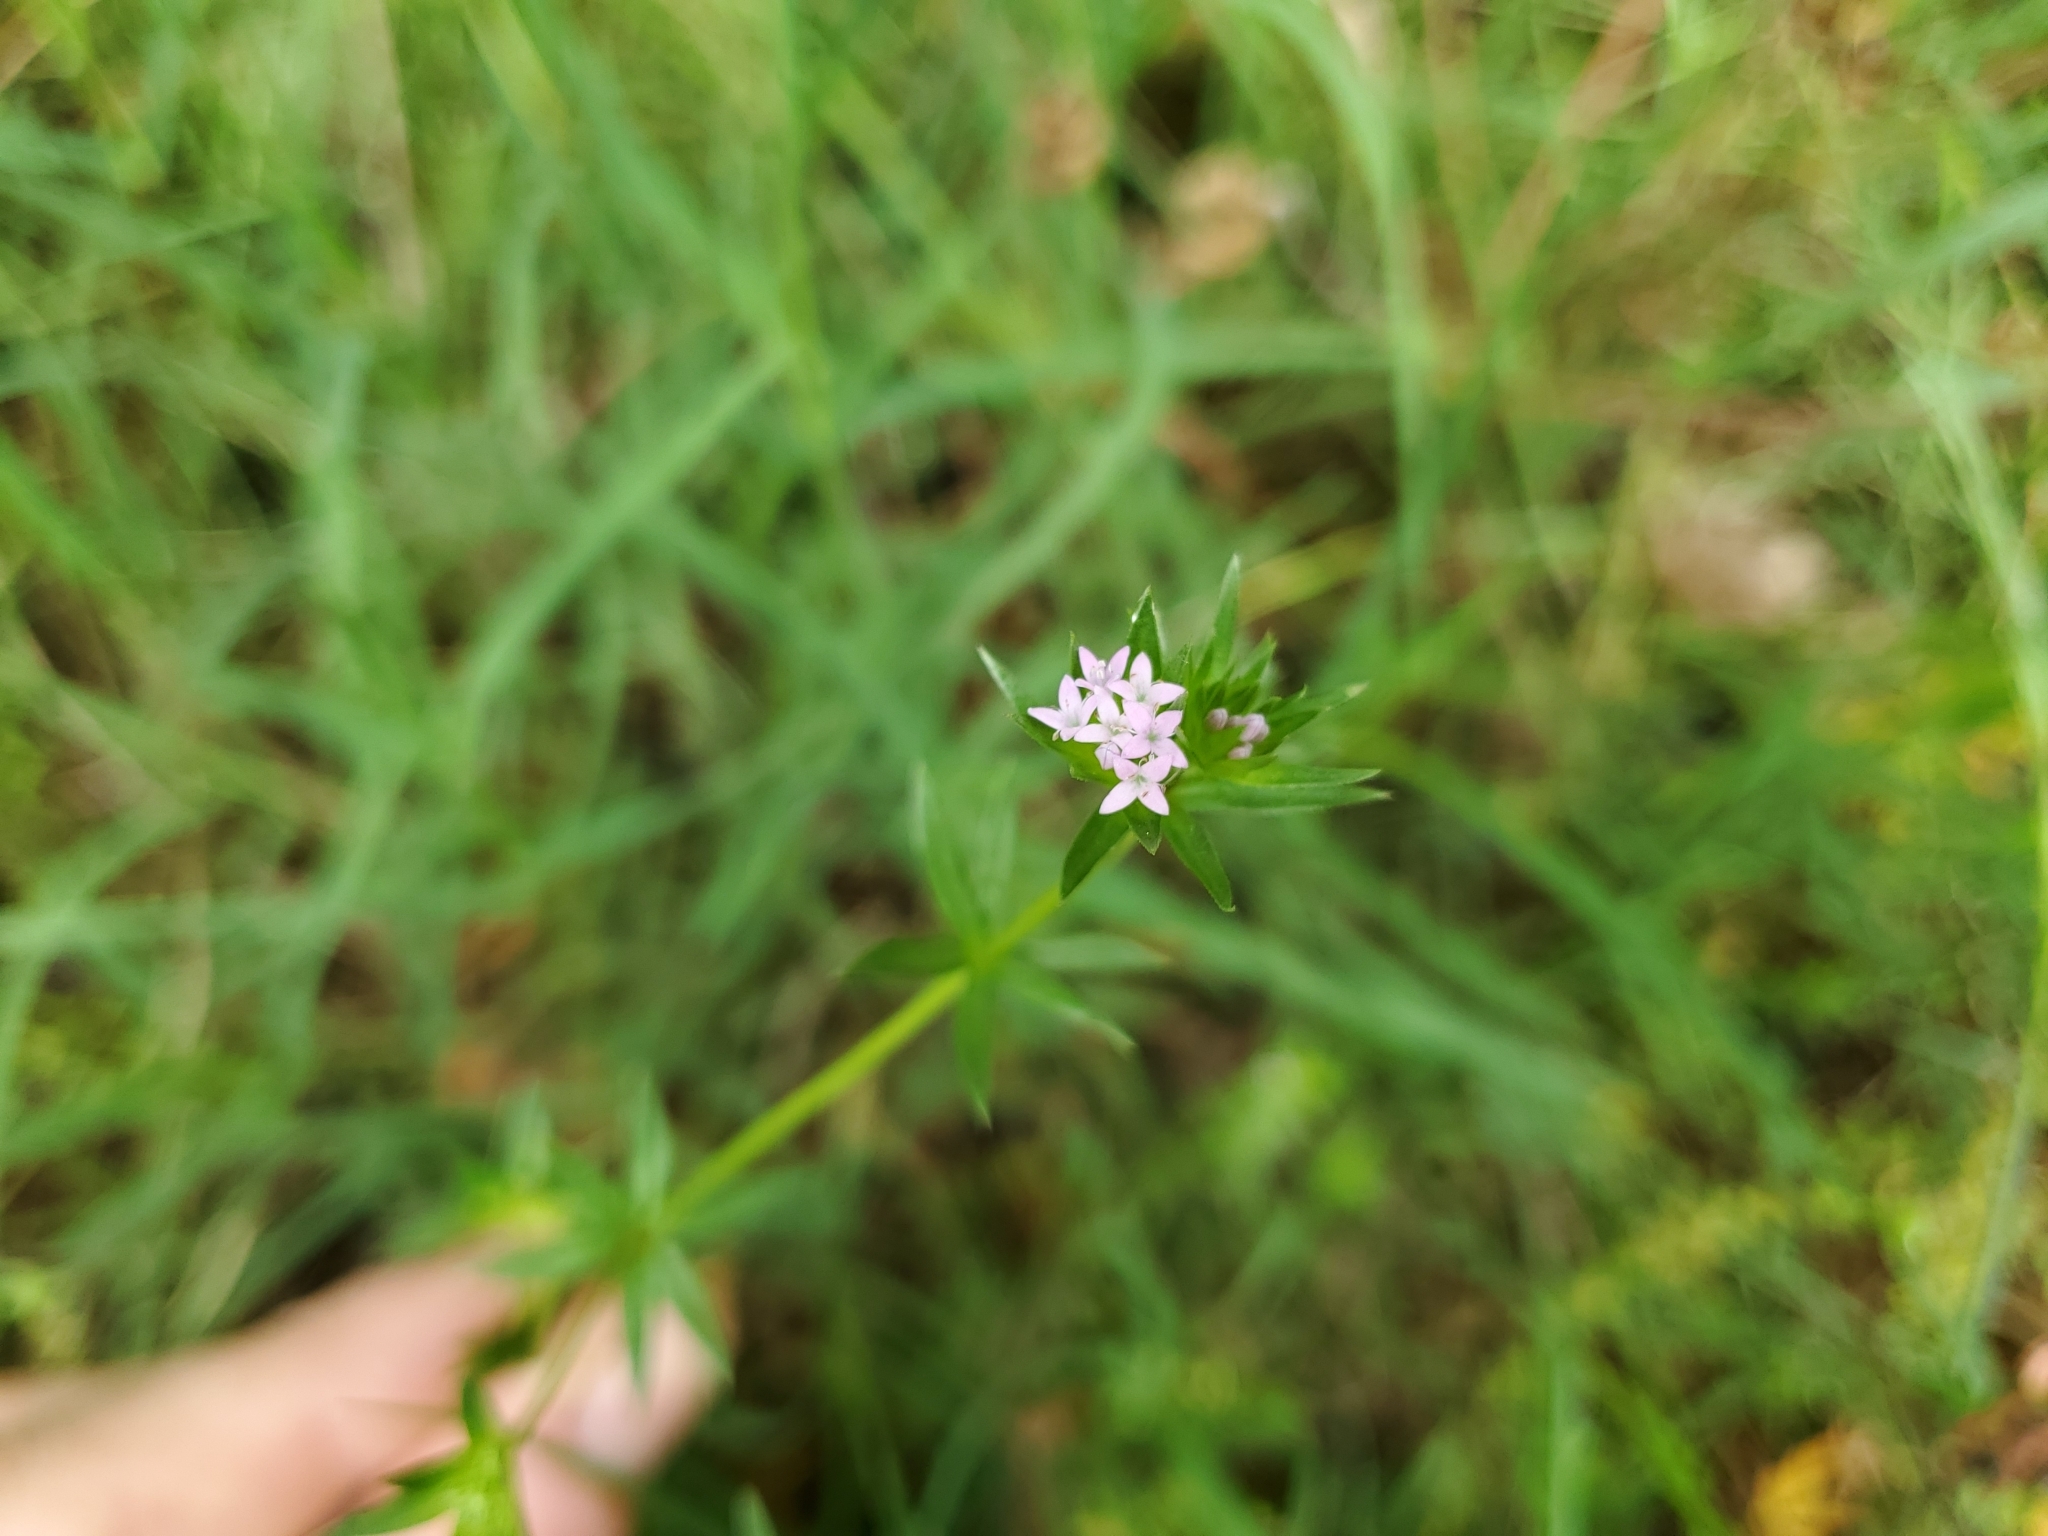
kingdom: Plantae
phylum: Tracheophyta
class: Magnoliopsida
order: Gentianales
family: Rubiaceae
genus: Sherardia
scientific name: Sherardia arvensis
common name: Field madder
